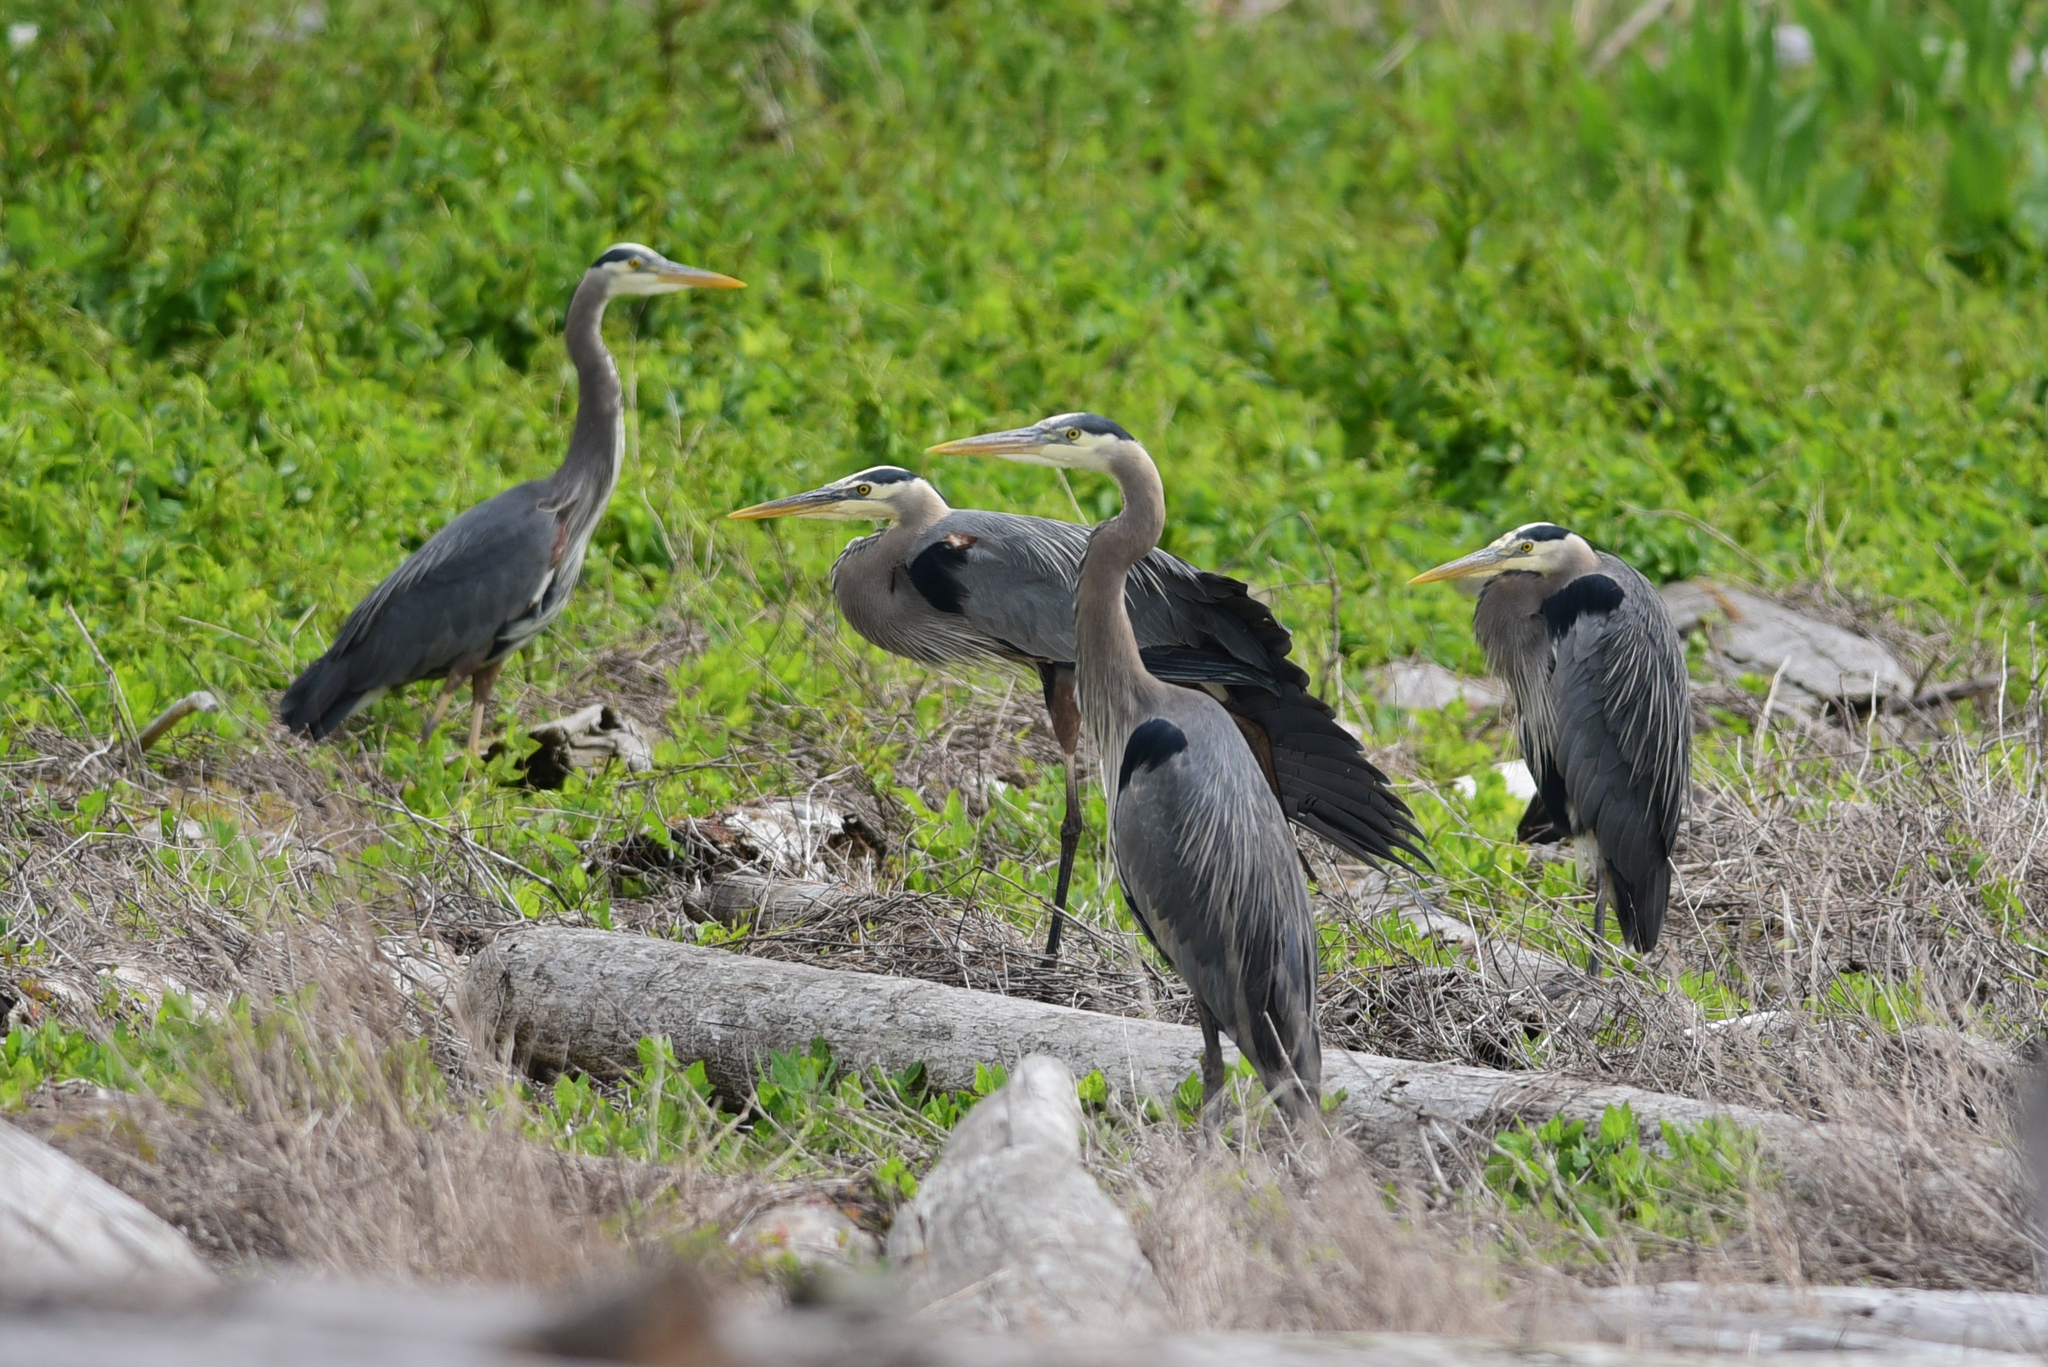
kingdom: Animalia
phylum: Chordata
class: Aves
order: Pelecaniformes
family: Ardeidae
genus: Ardea
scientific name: Ardea herodias
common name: Great blue heron
